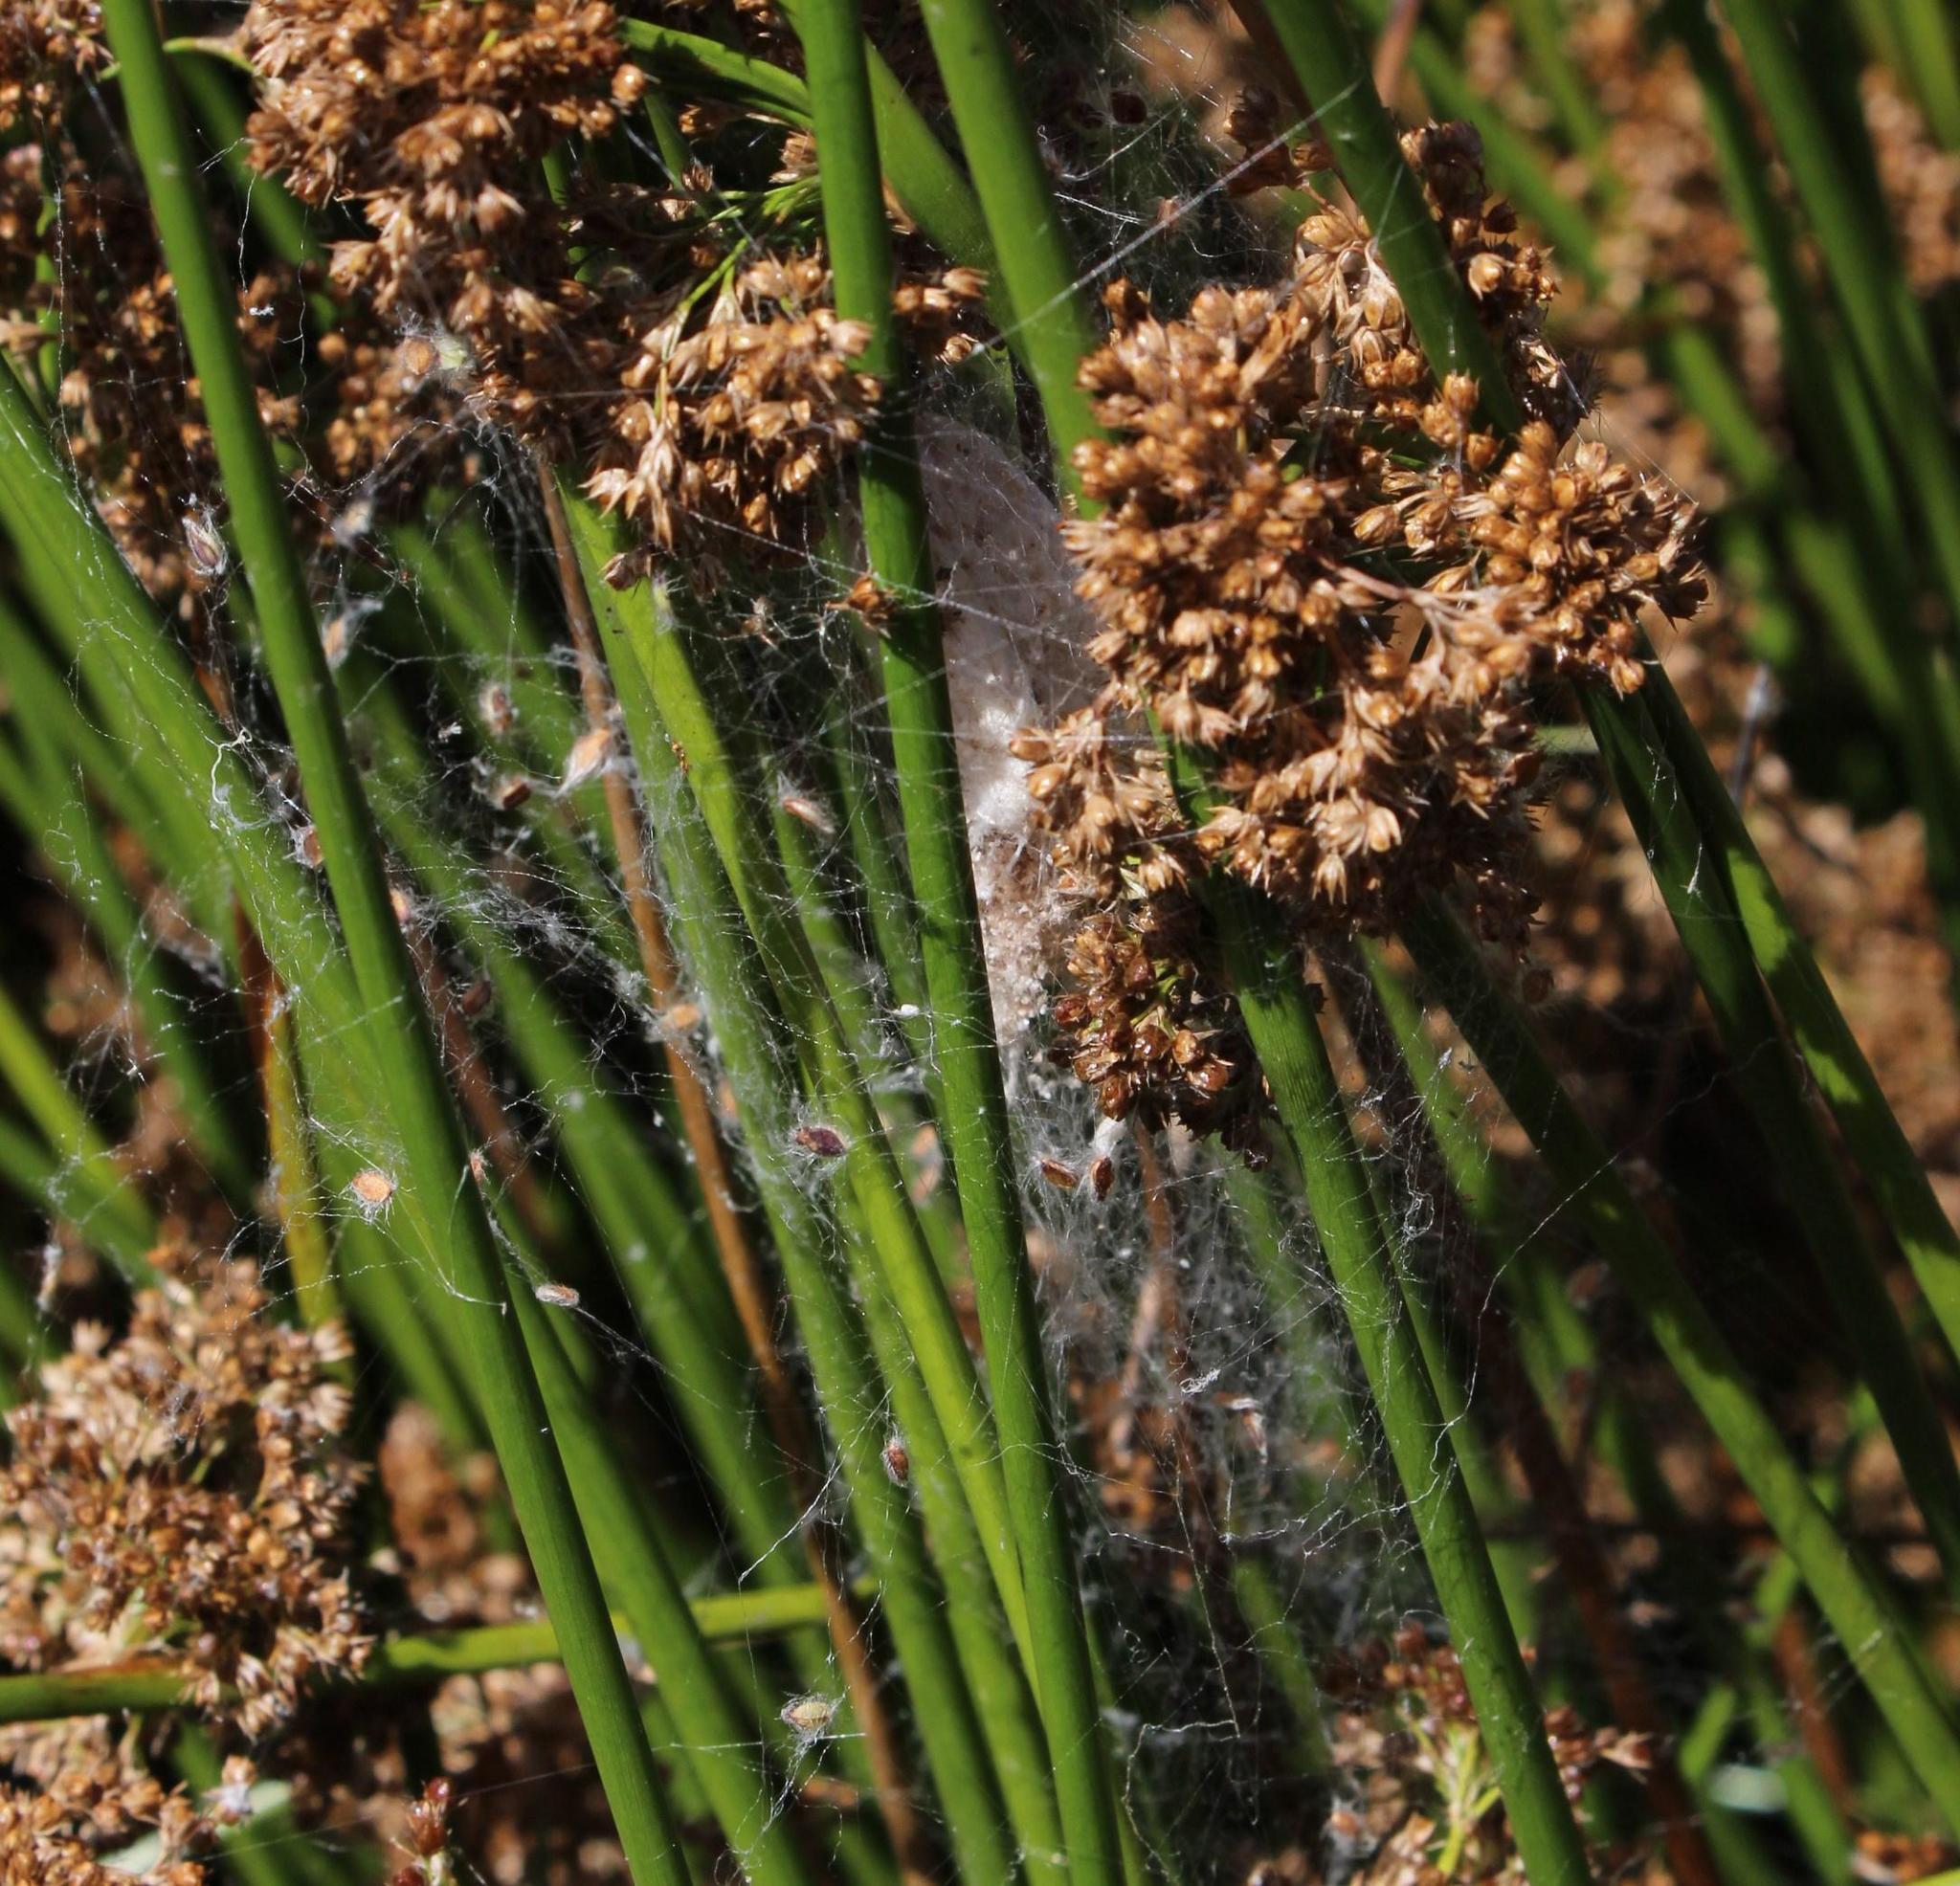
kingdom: Plantae
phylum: Tracheophyta
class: Liliopsida
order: Poales
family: Juncaceae
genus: Juncus
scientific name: Juncus effusus
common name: Soft rush
